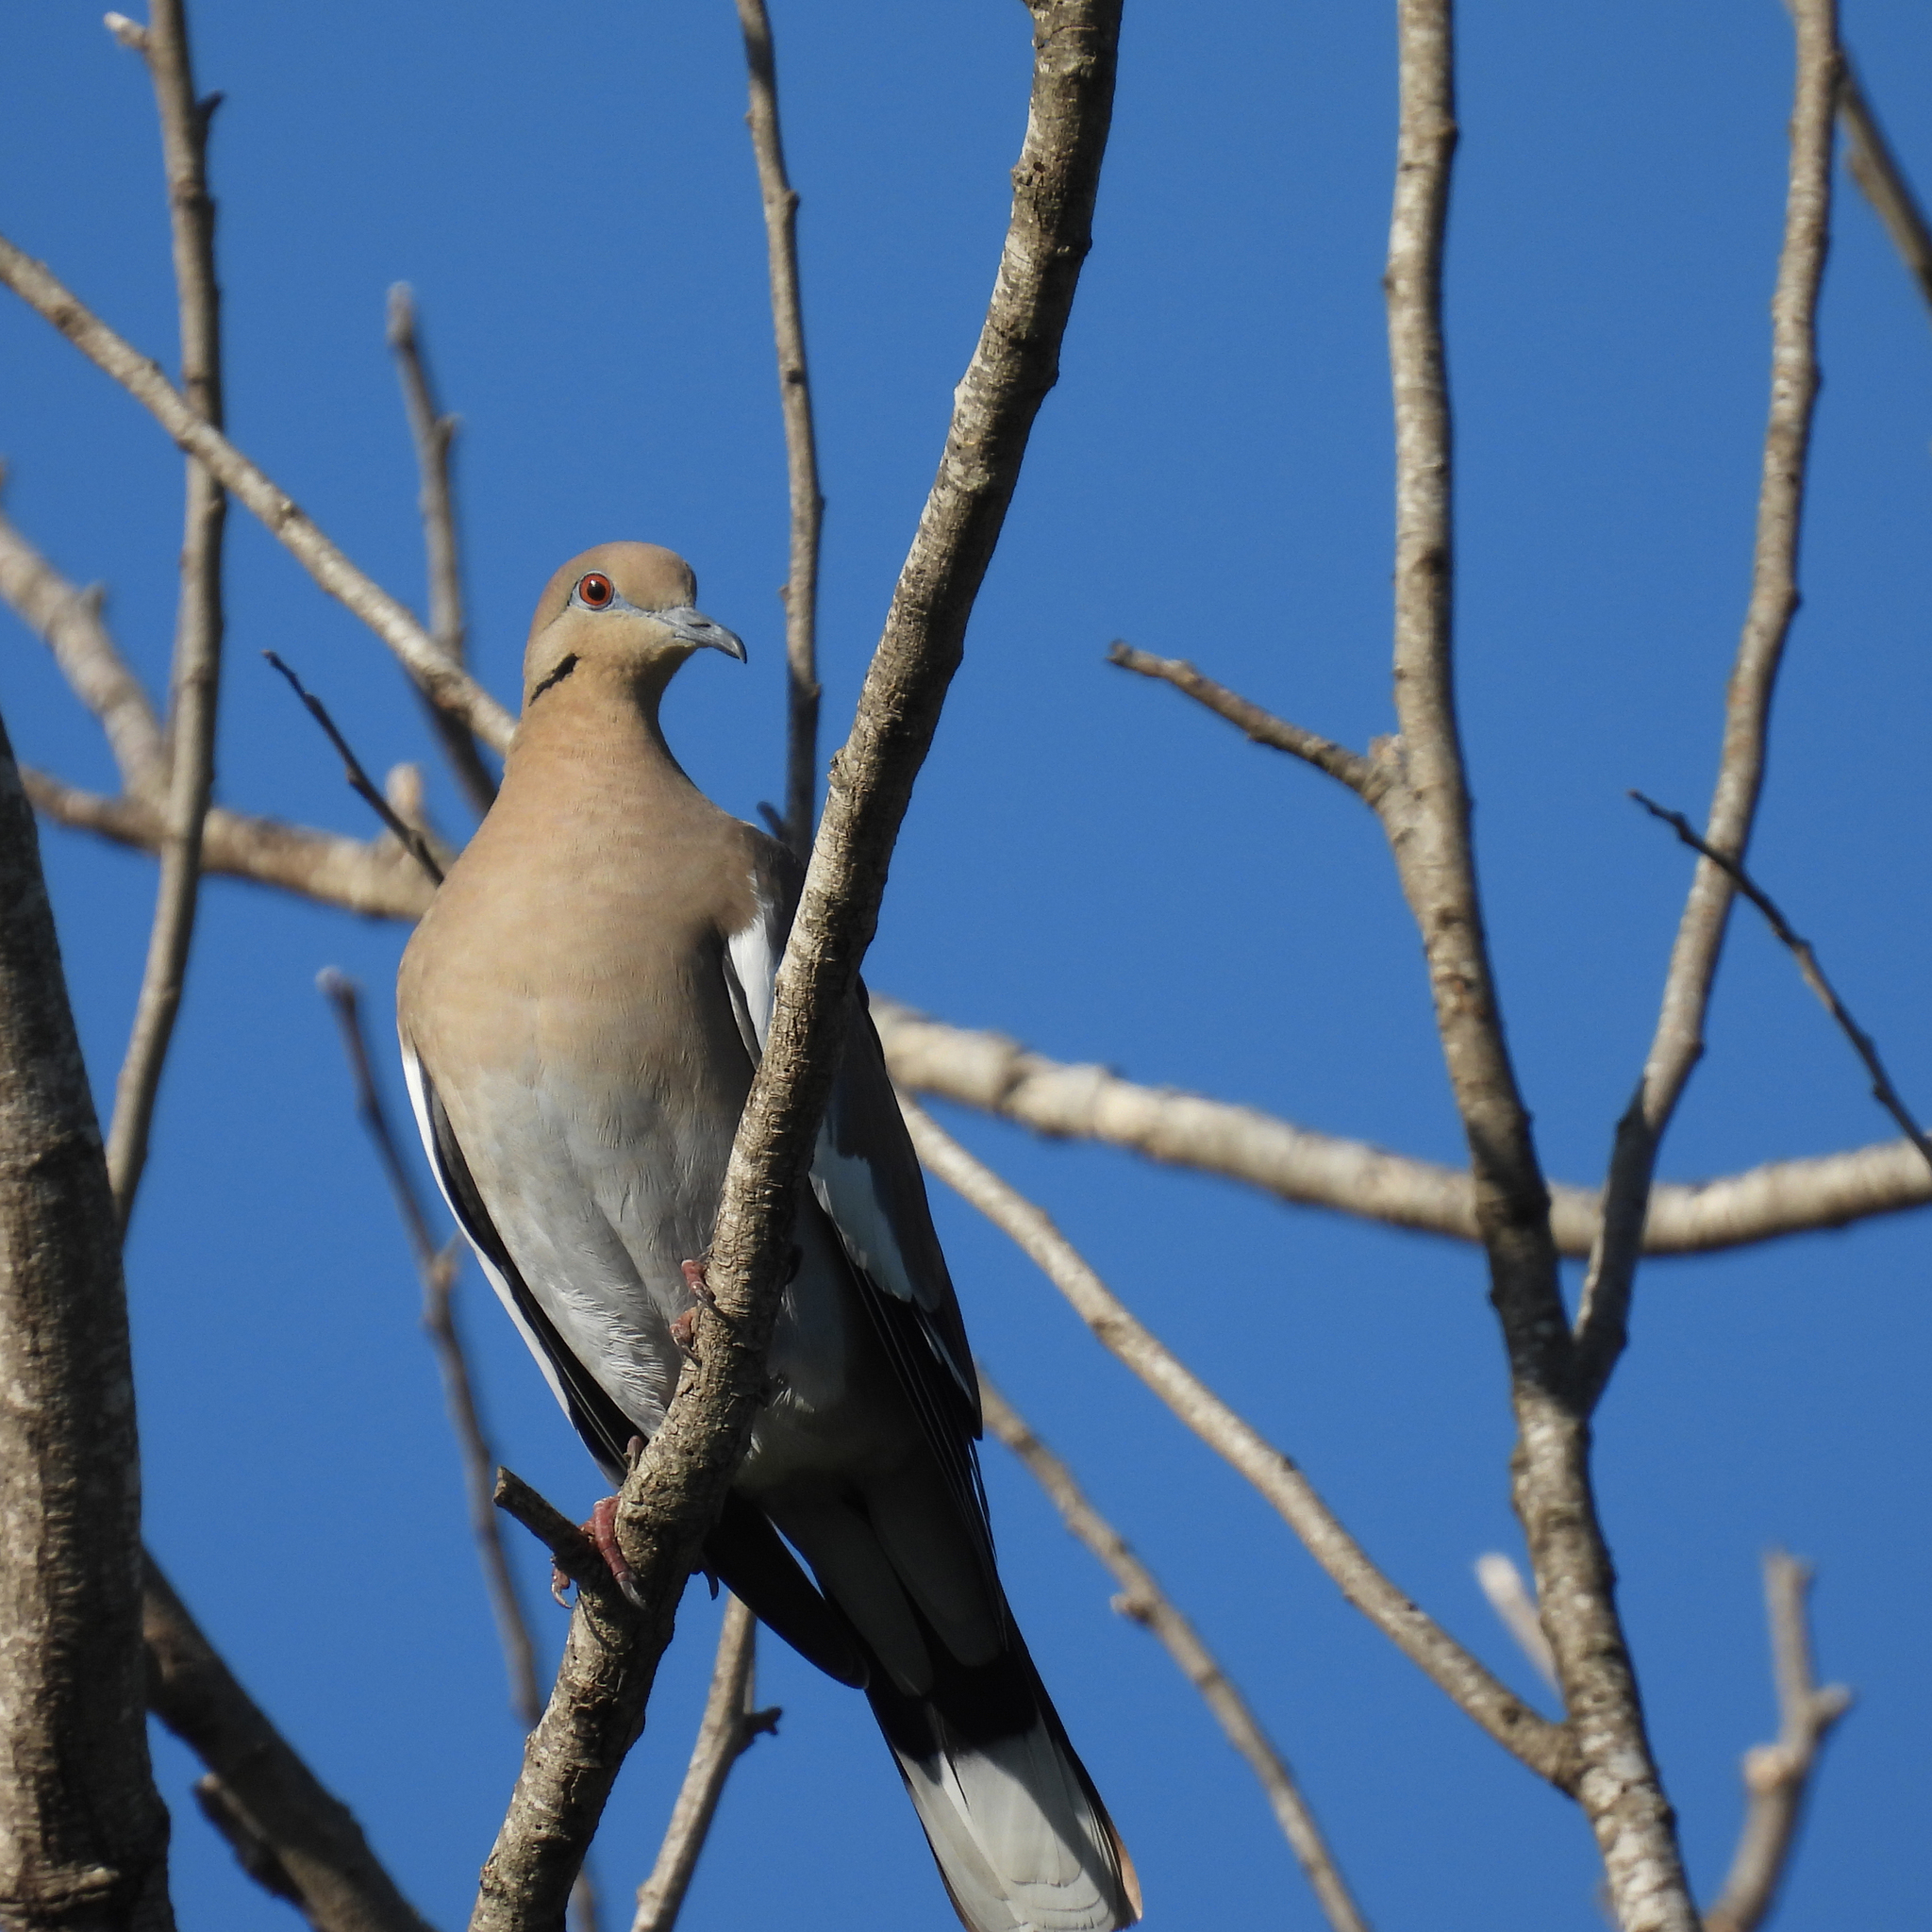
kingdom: Animalia
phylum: Chordata
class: Aves
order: Columbiformes
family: Columbidae
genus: Zenaida
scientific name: Zenaida asiatica
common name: White-winged dove
